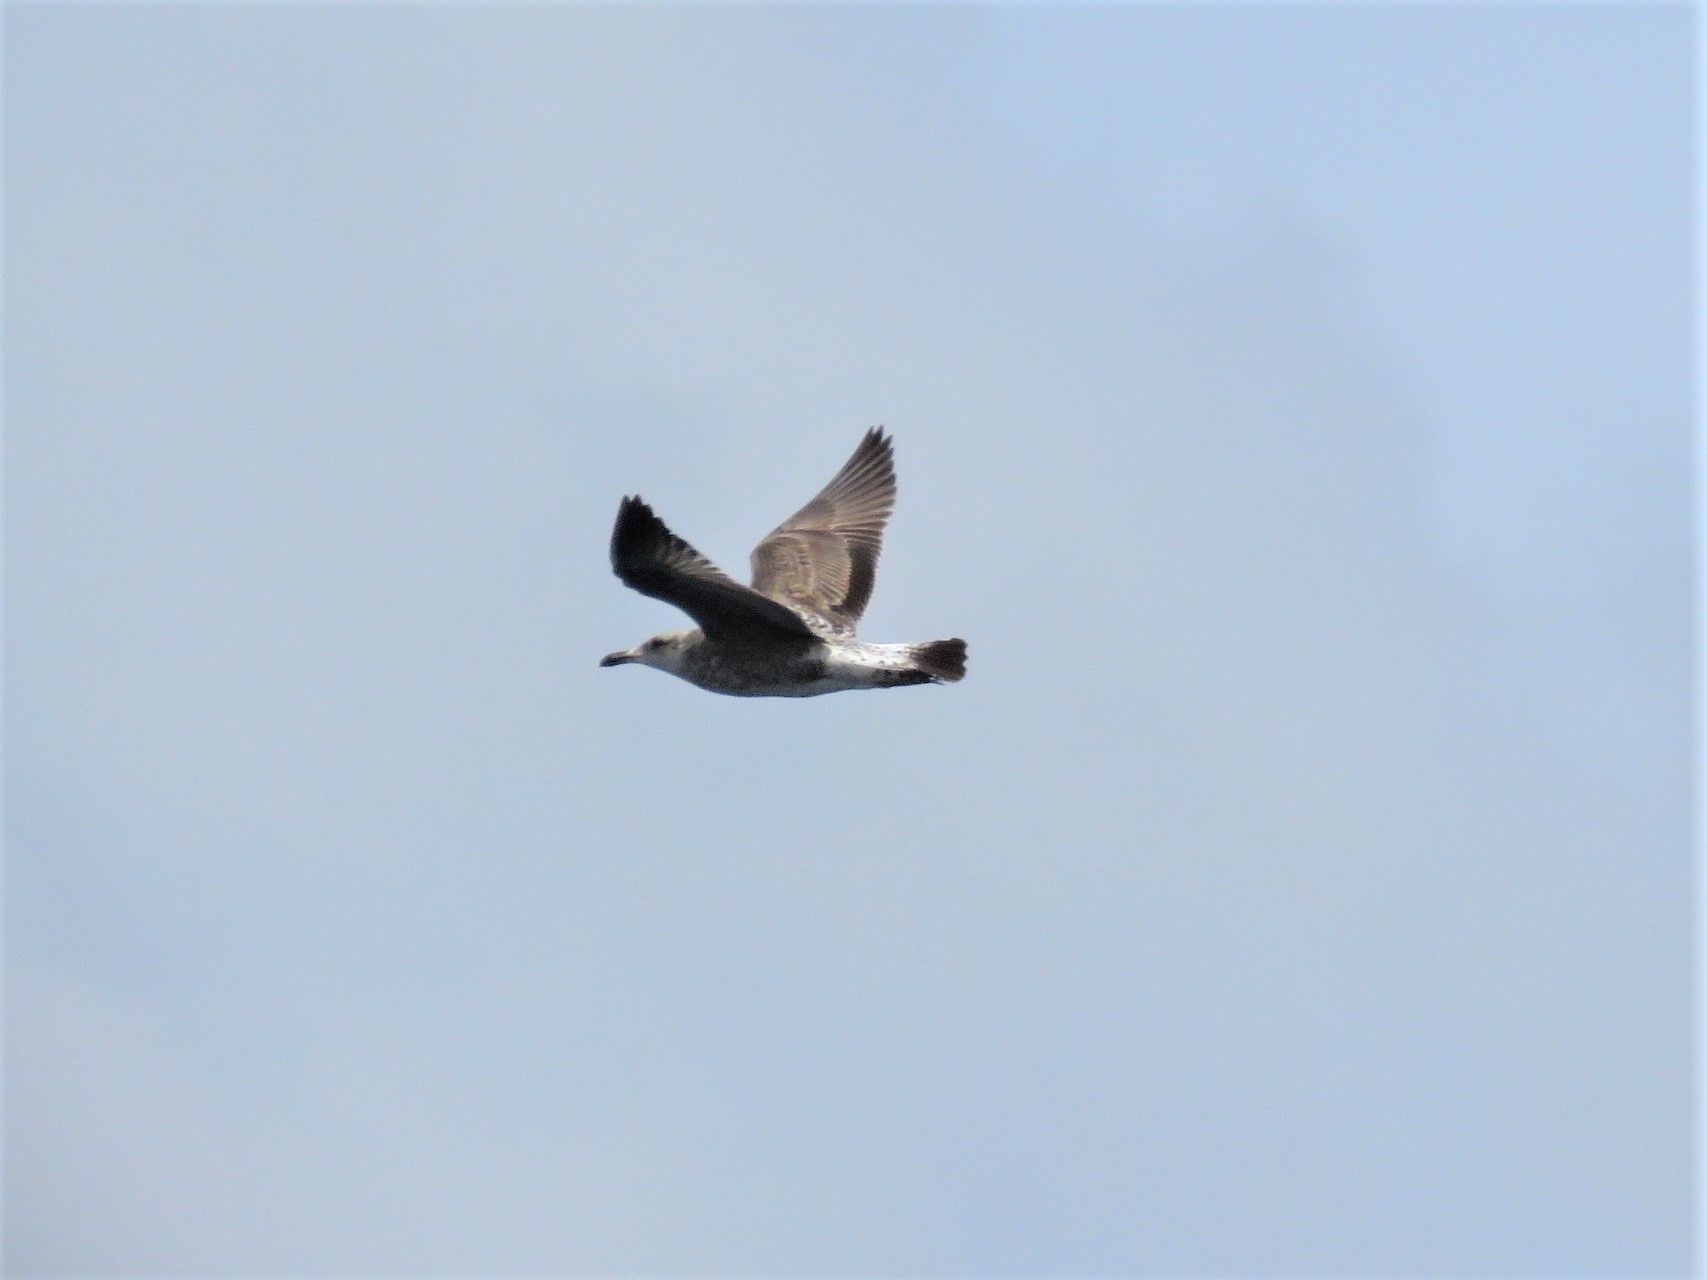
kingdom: Animalia
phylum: Chordata
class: Aves
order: Charadriiformes
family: Laridae
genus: Larus
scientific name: Larus michahellis
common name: Yellow-legged gull
